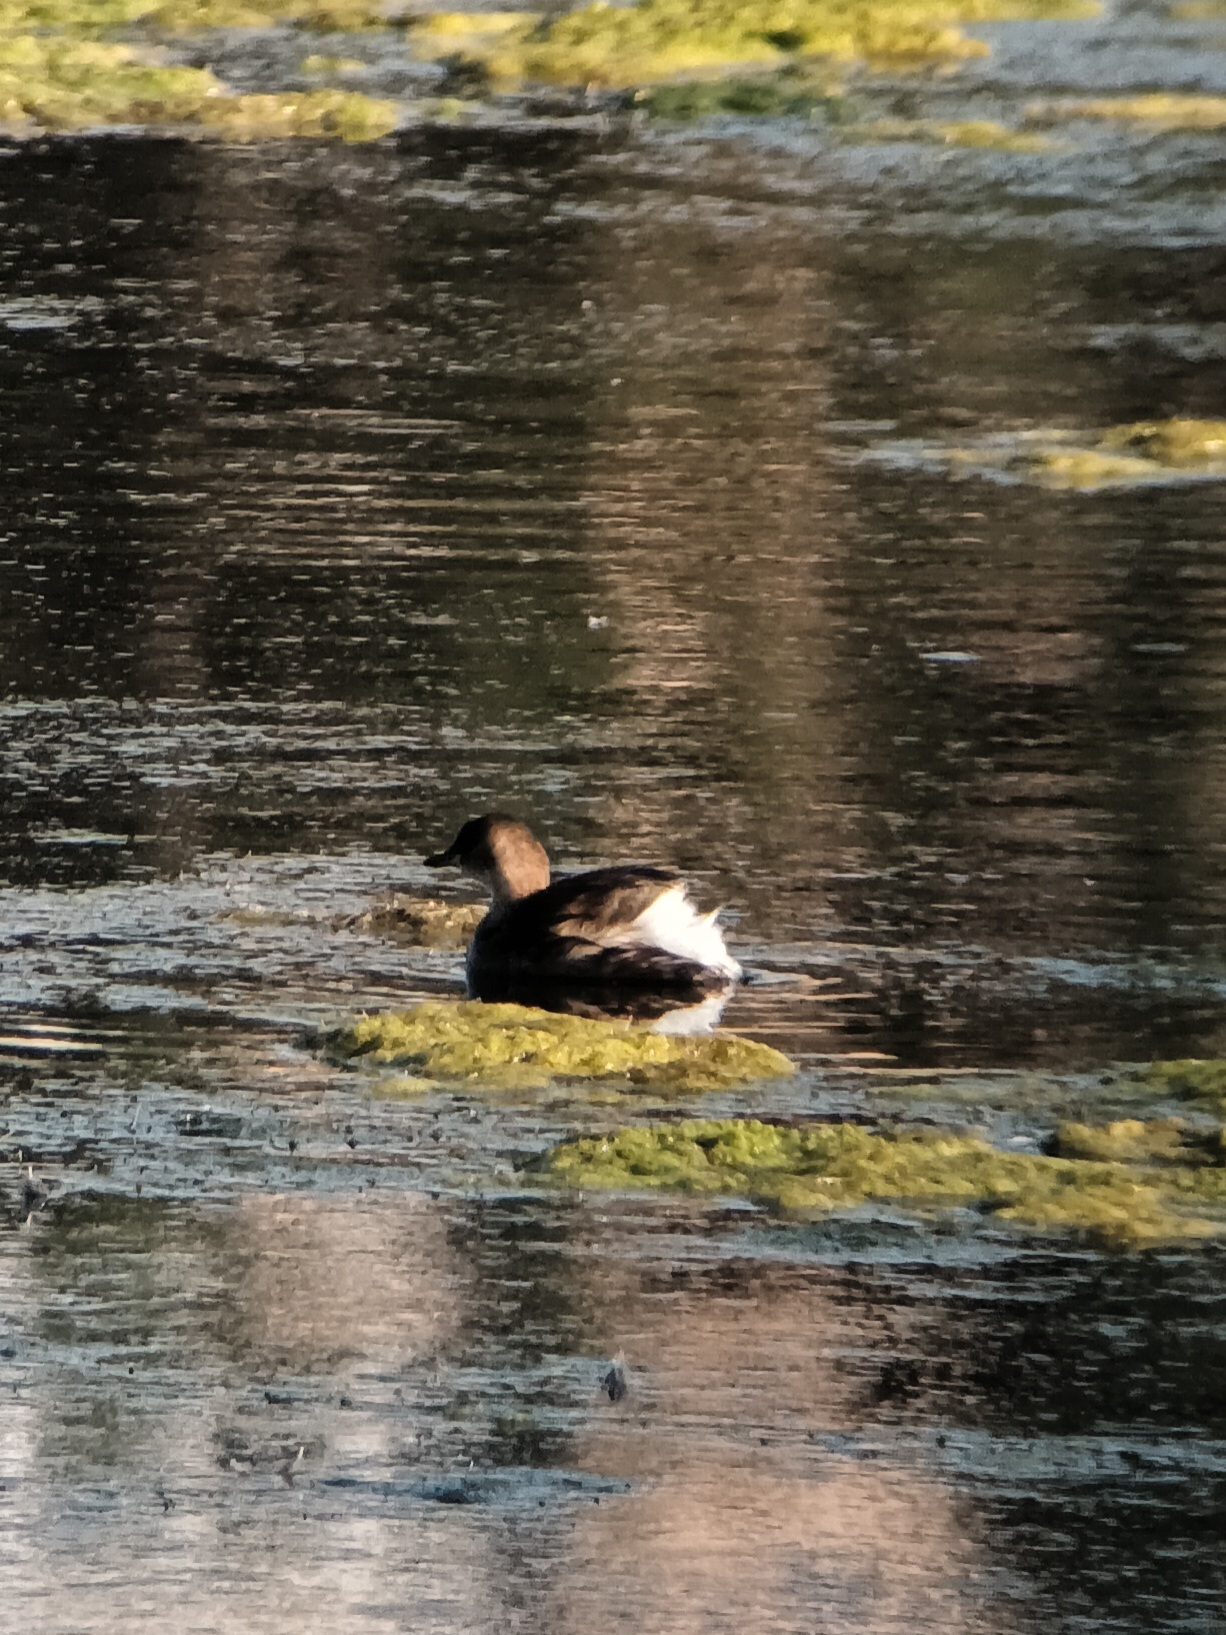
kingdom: Animalia
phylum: Chordata
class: Aves
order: Podicipediformes
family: Podicipedidae
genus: Tachybaptus
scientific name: Tachybaptus ruficollis
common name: Little grebe
